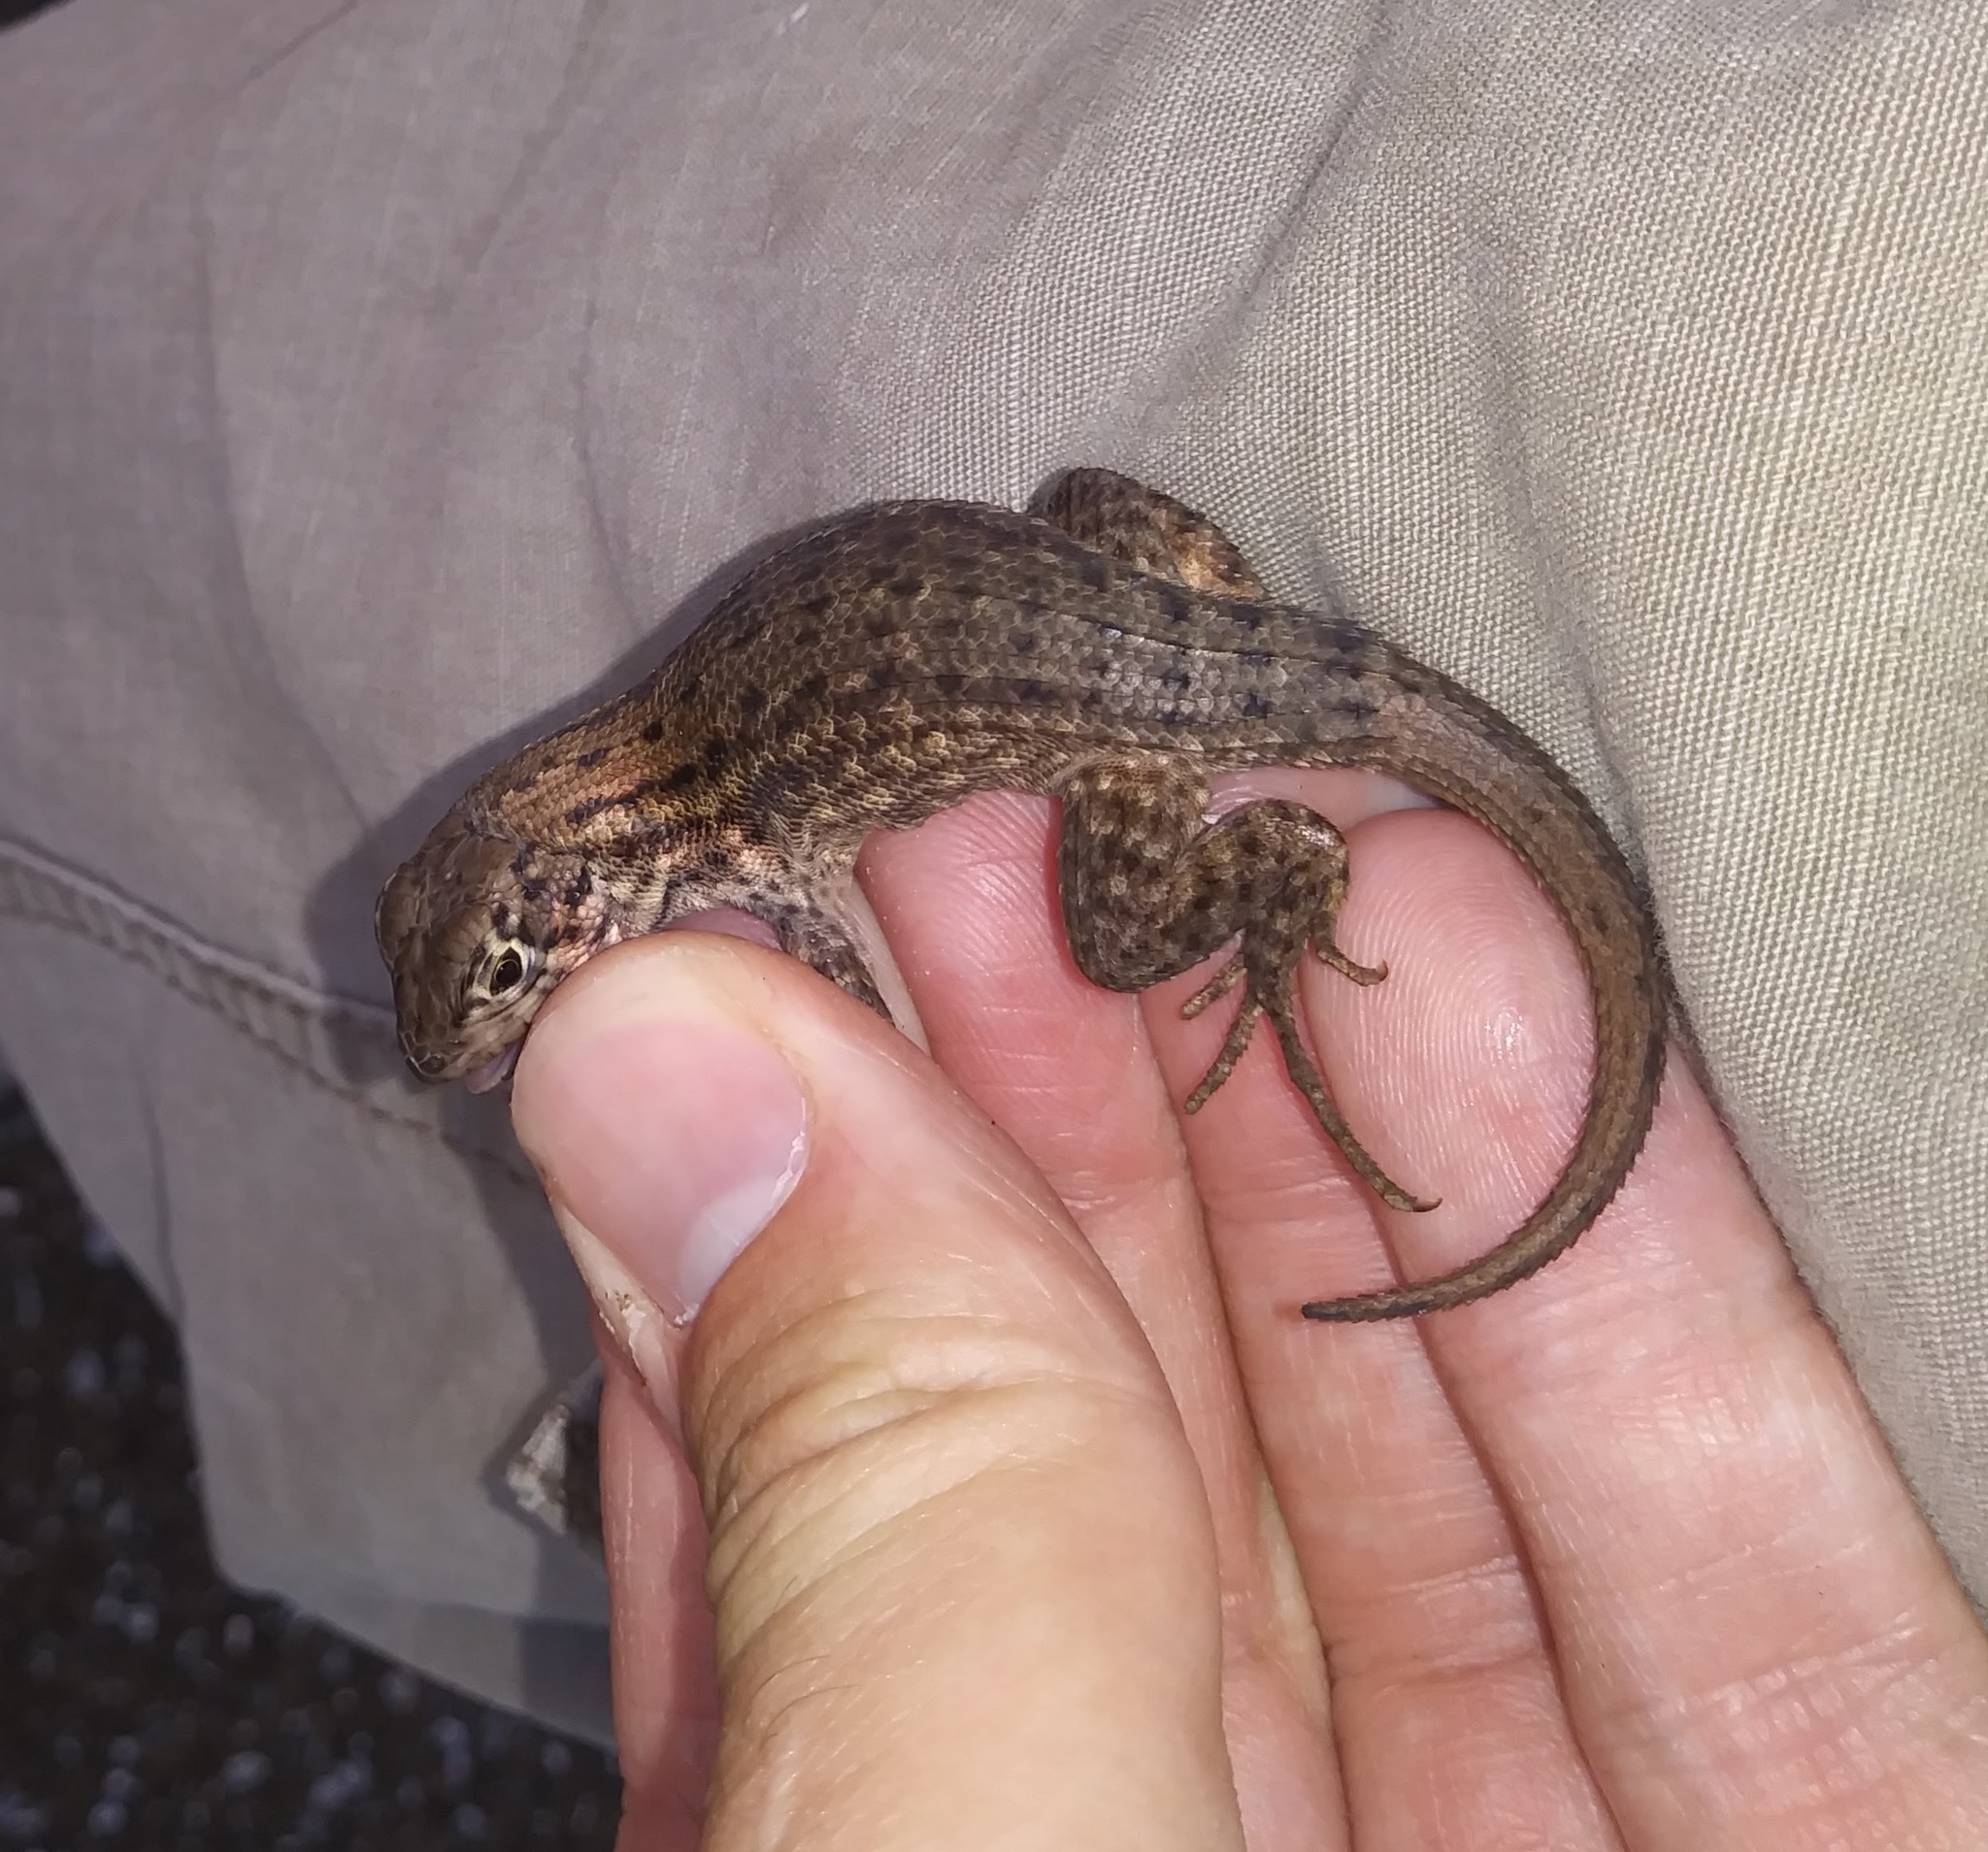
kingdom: Animalia
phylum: Chordata
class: Squamata
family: Leiocephalidae
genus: Leiocephalus
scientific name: Leiocephalus carinatus
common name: Northern curly-tailed lizard
